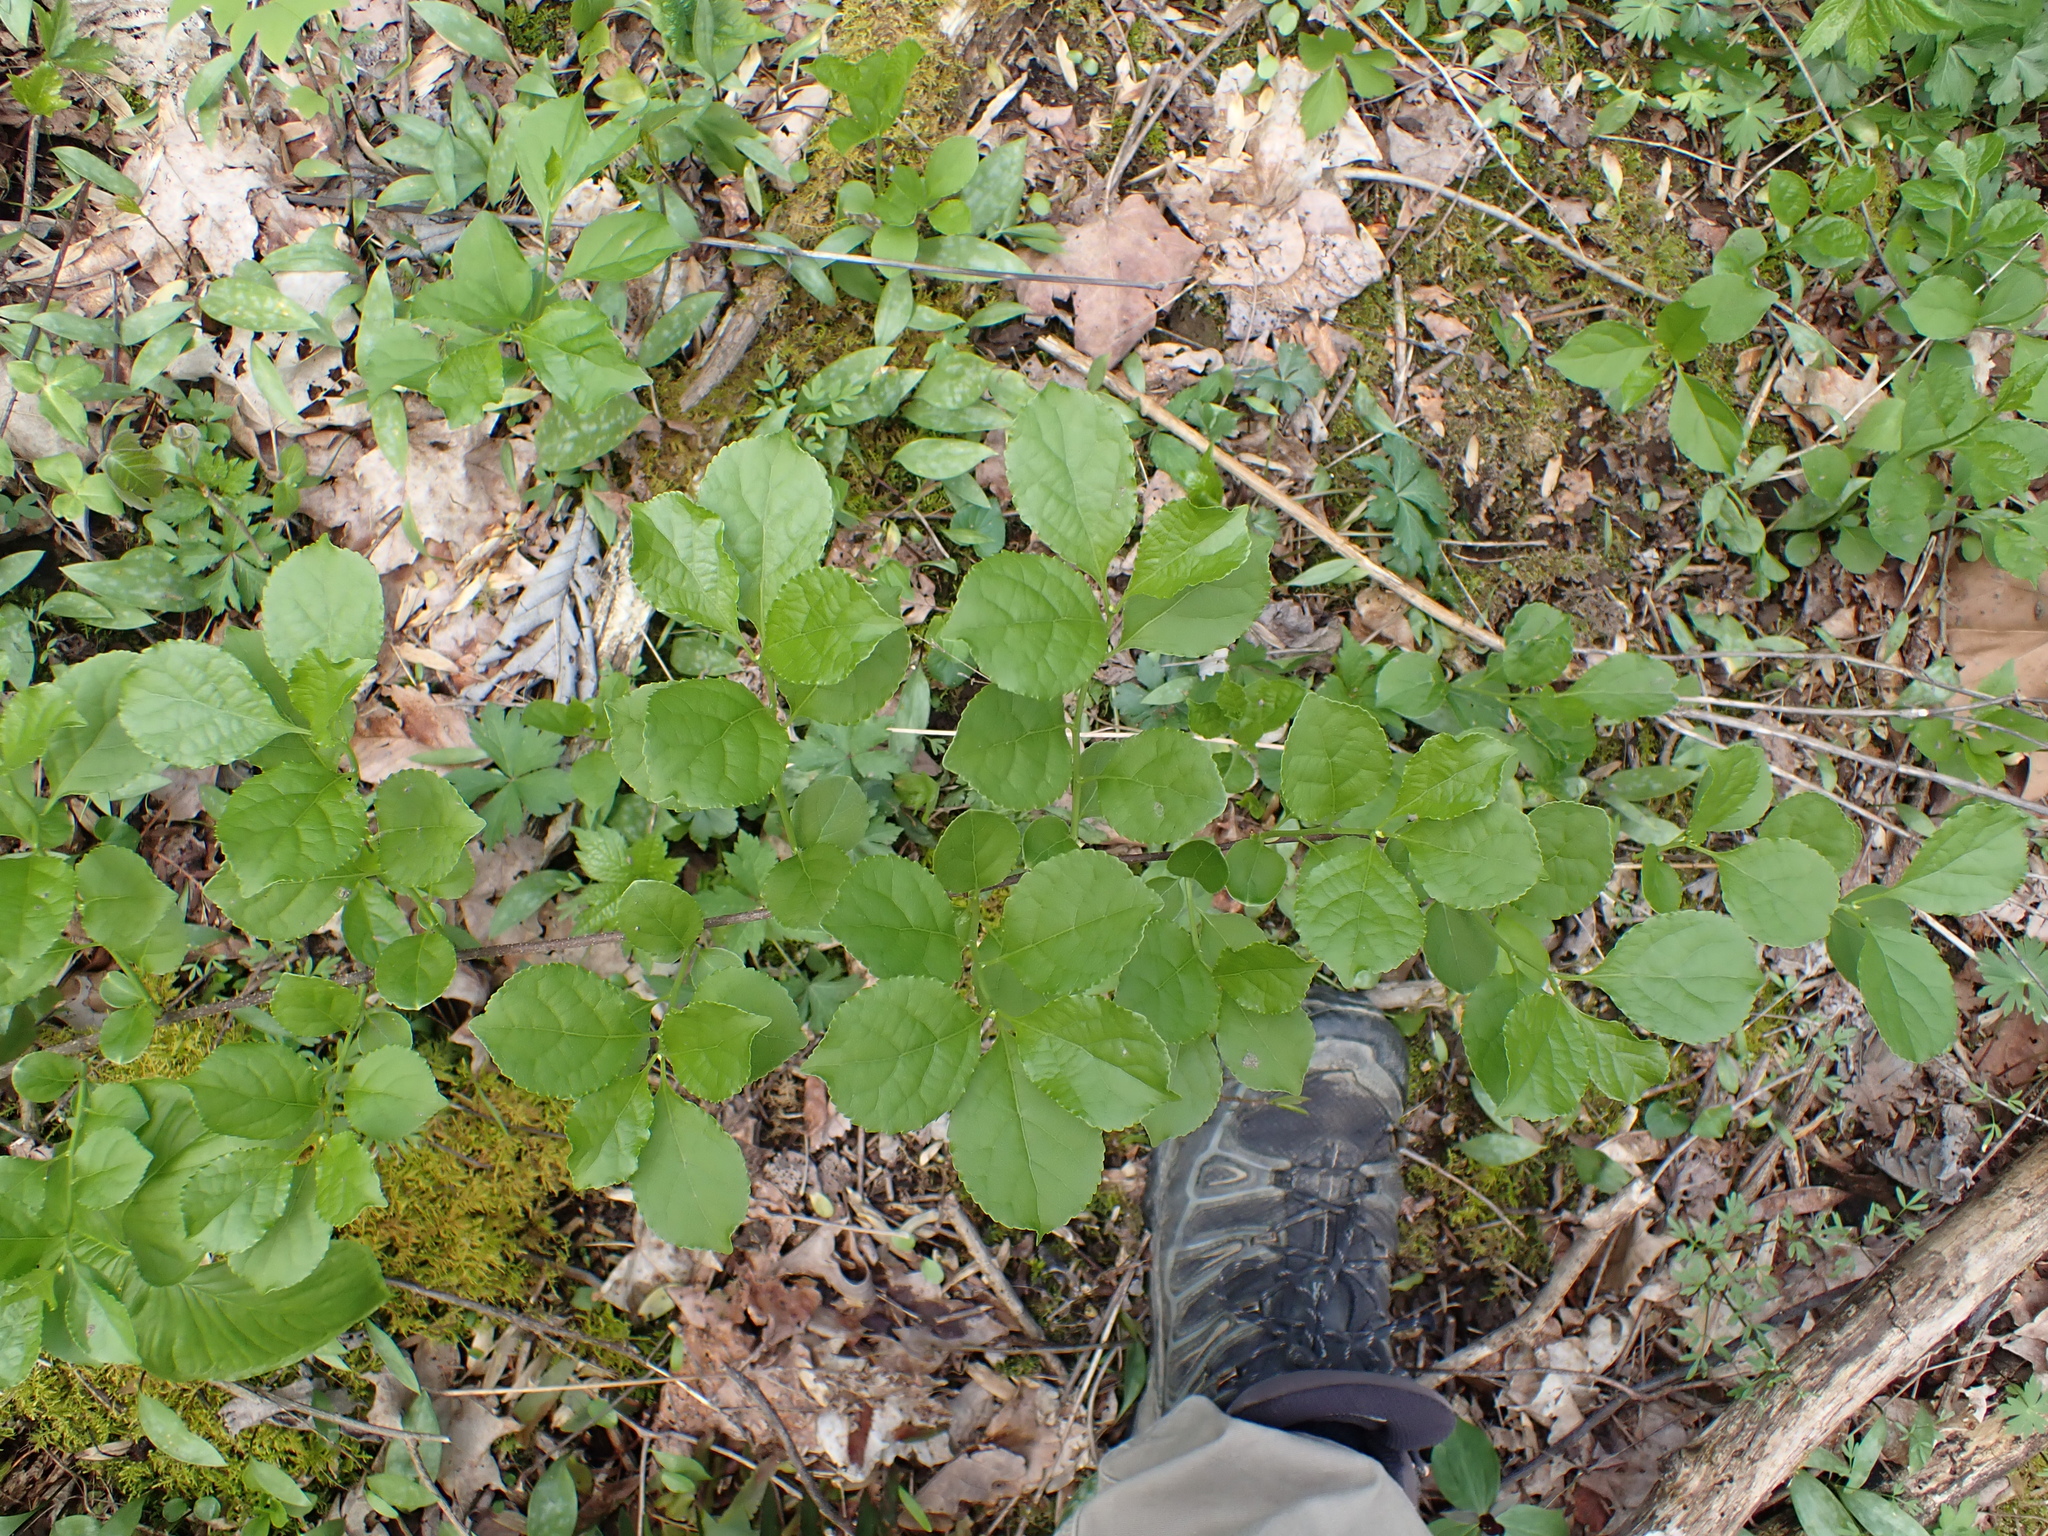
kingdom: Plantae
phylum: Tracheophyta
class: Magnoliopsida
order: Celastrales
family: Celastraceae
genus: Celastrus
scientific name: Celastrus orbiculatus
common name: Oriental bittersweet
